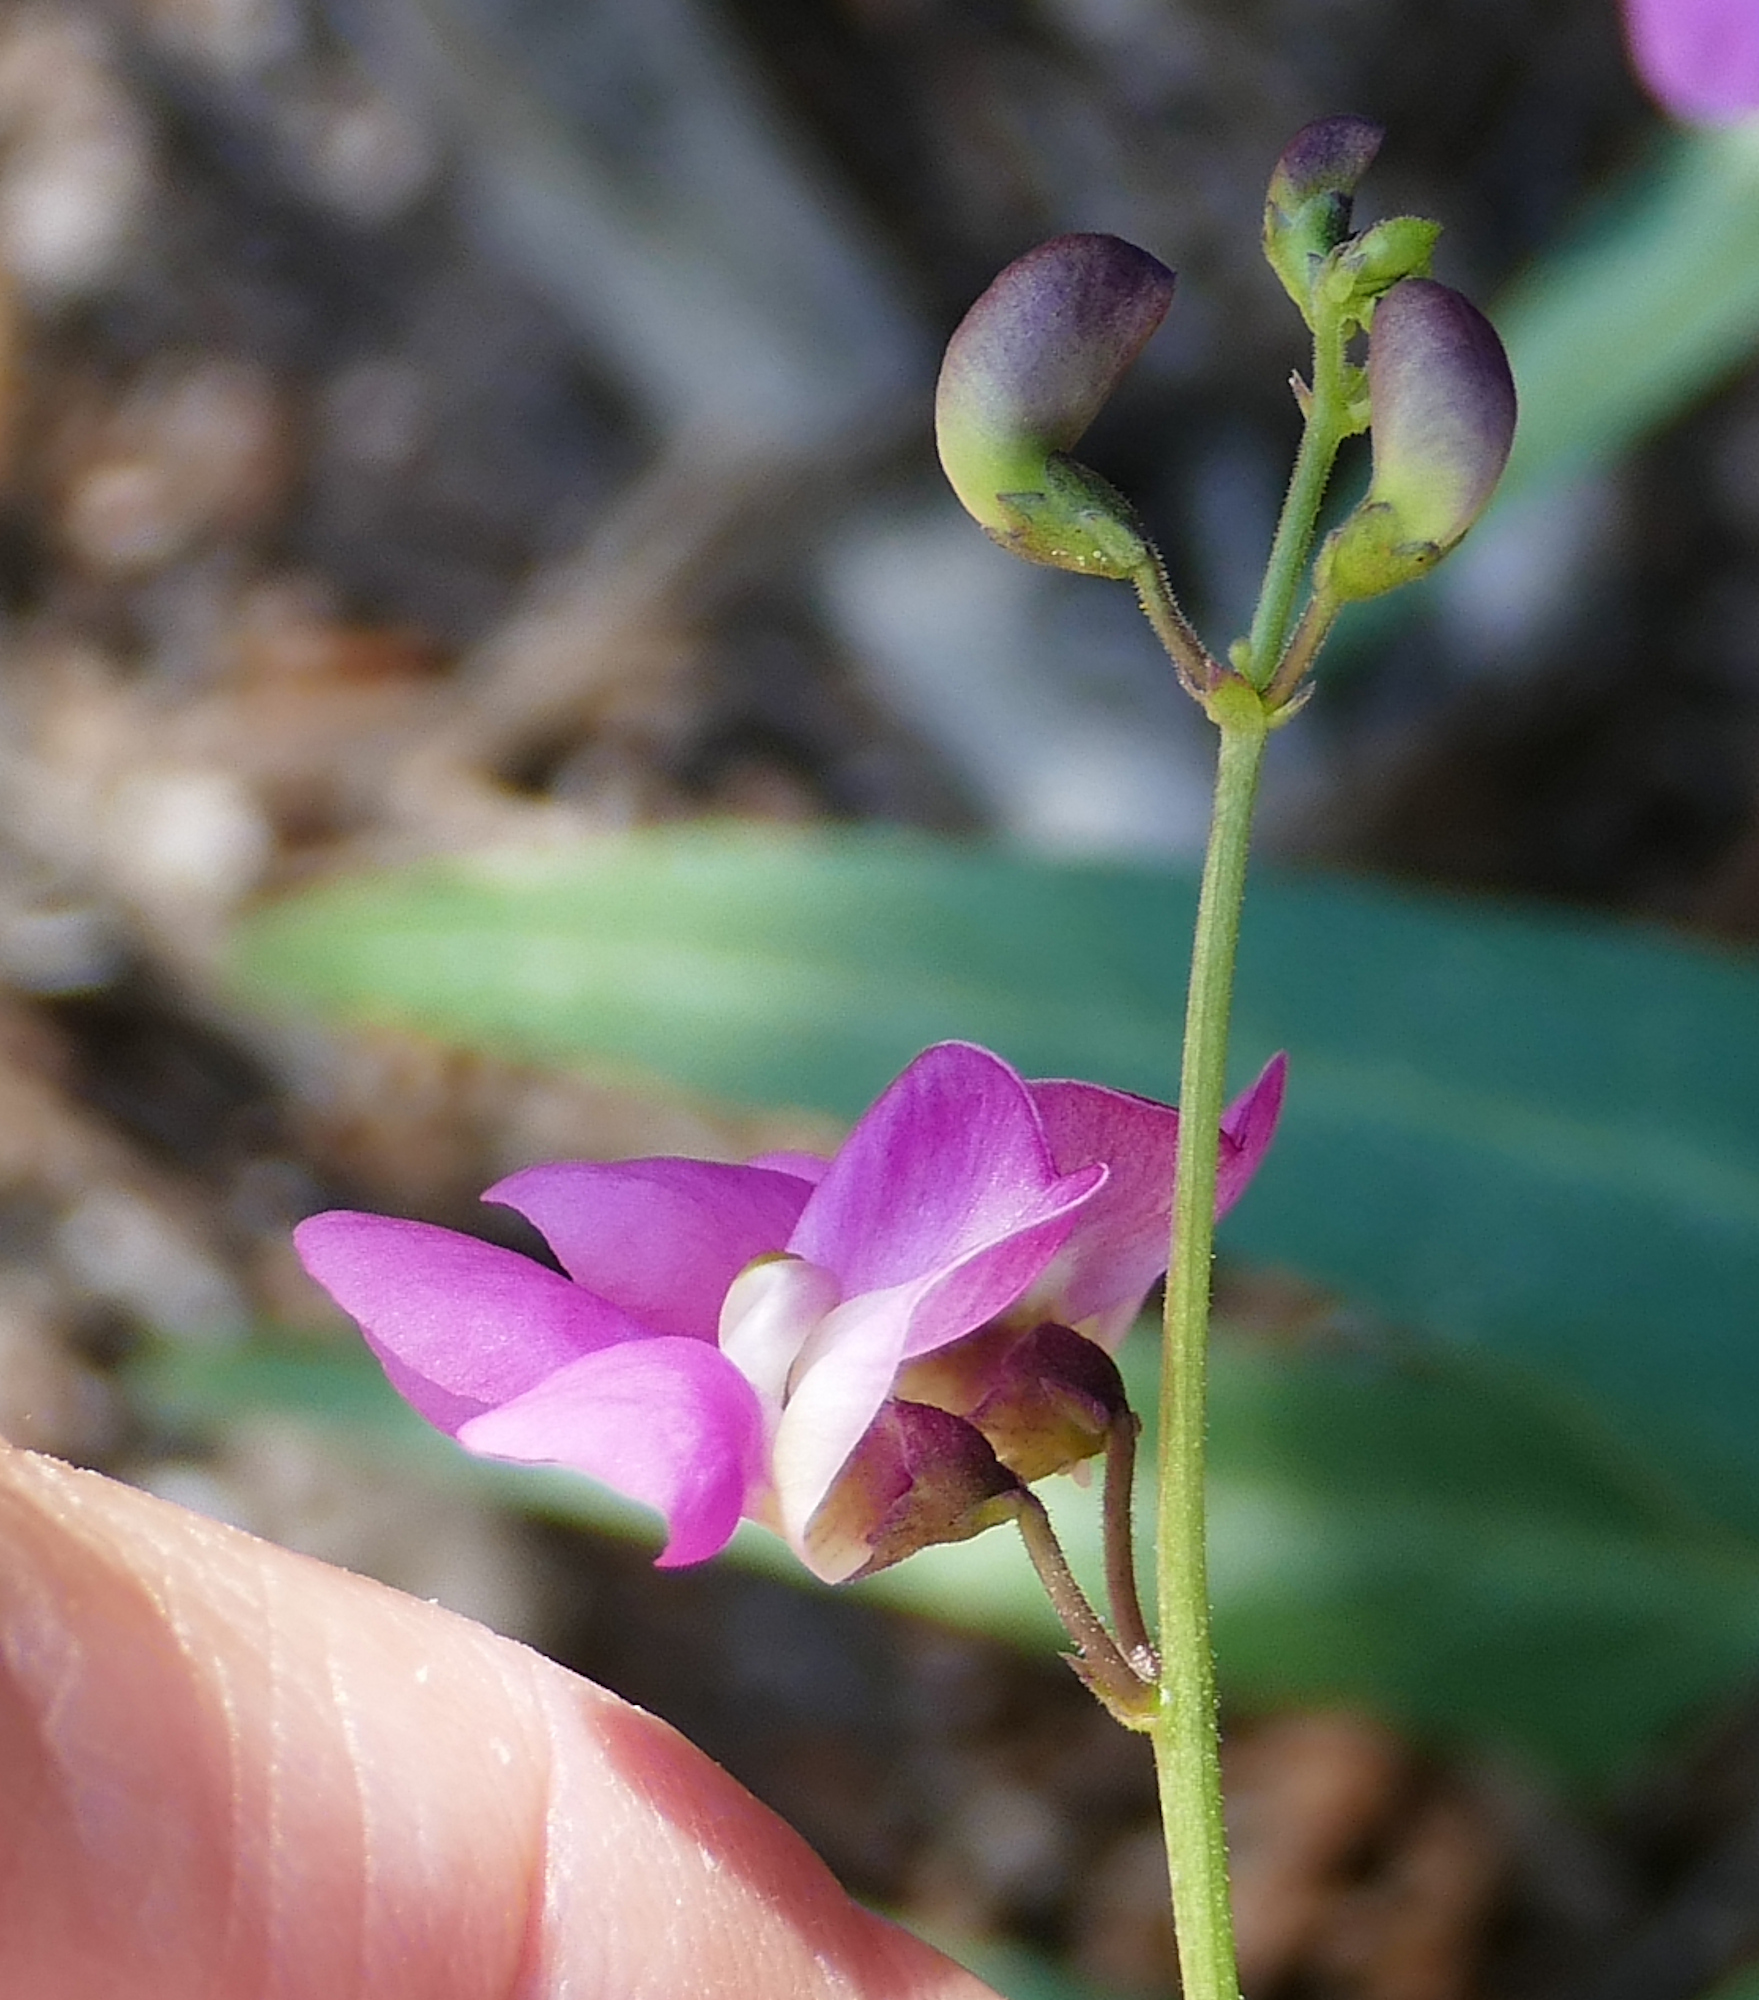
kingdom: Plantae
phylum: Tracheophyta
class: Magnoliopsida
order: Fabales
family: Fabaceae
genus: Phaseolus
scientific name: Phaseolus angustissimus
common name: Slimleaf bean
